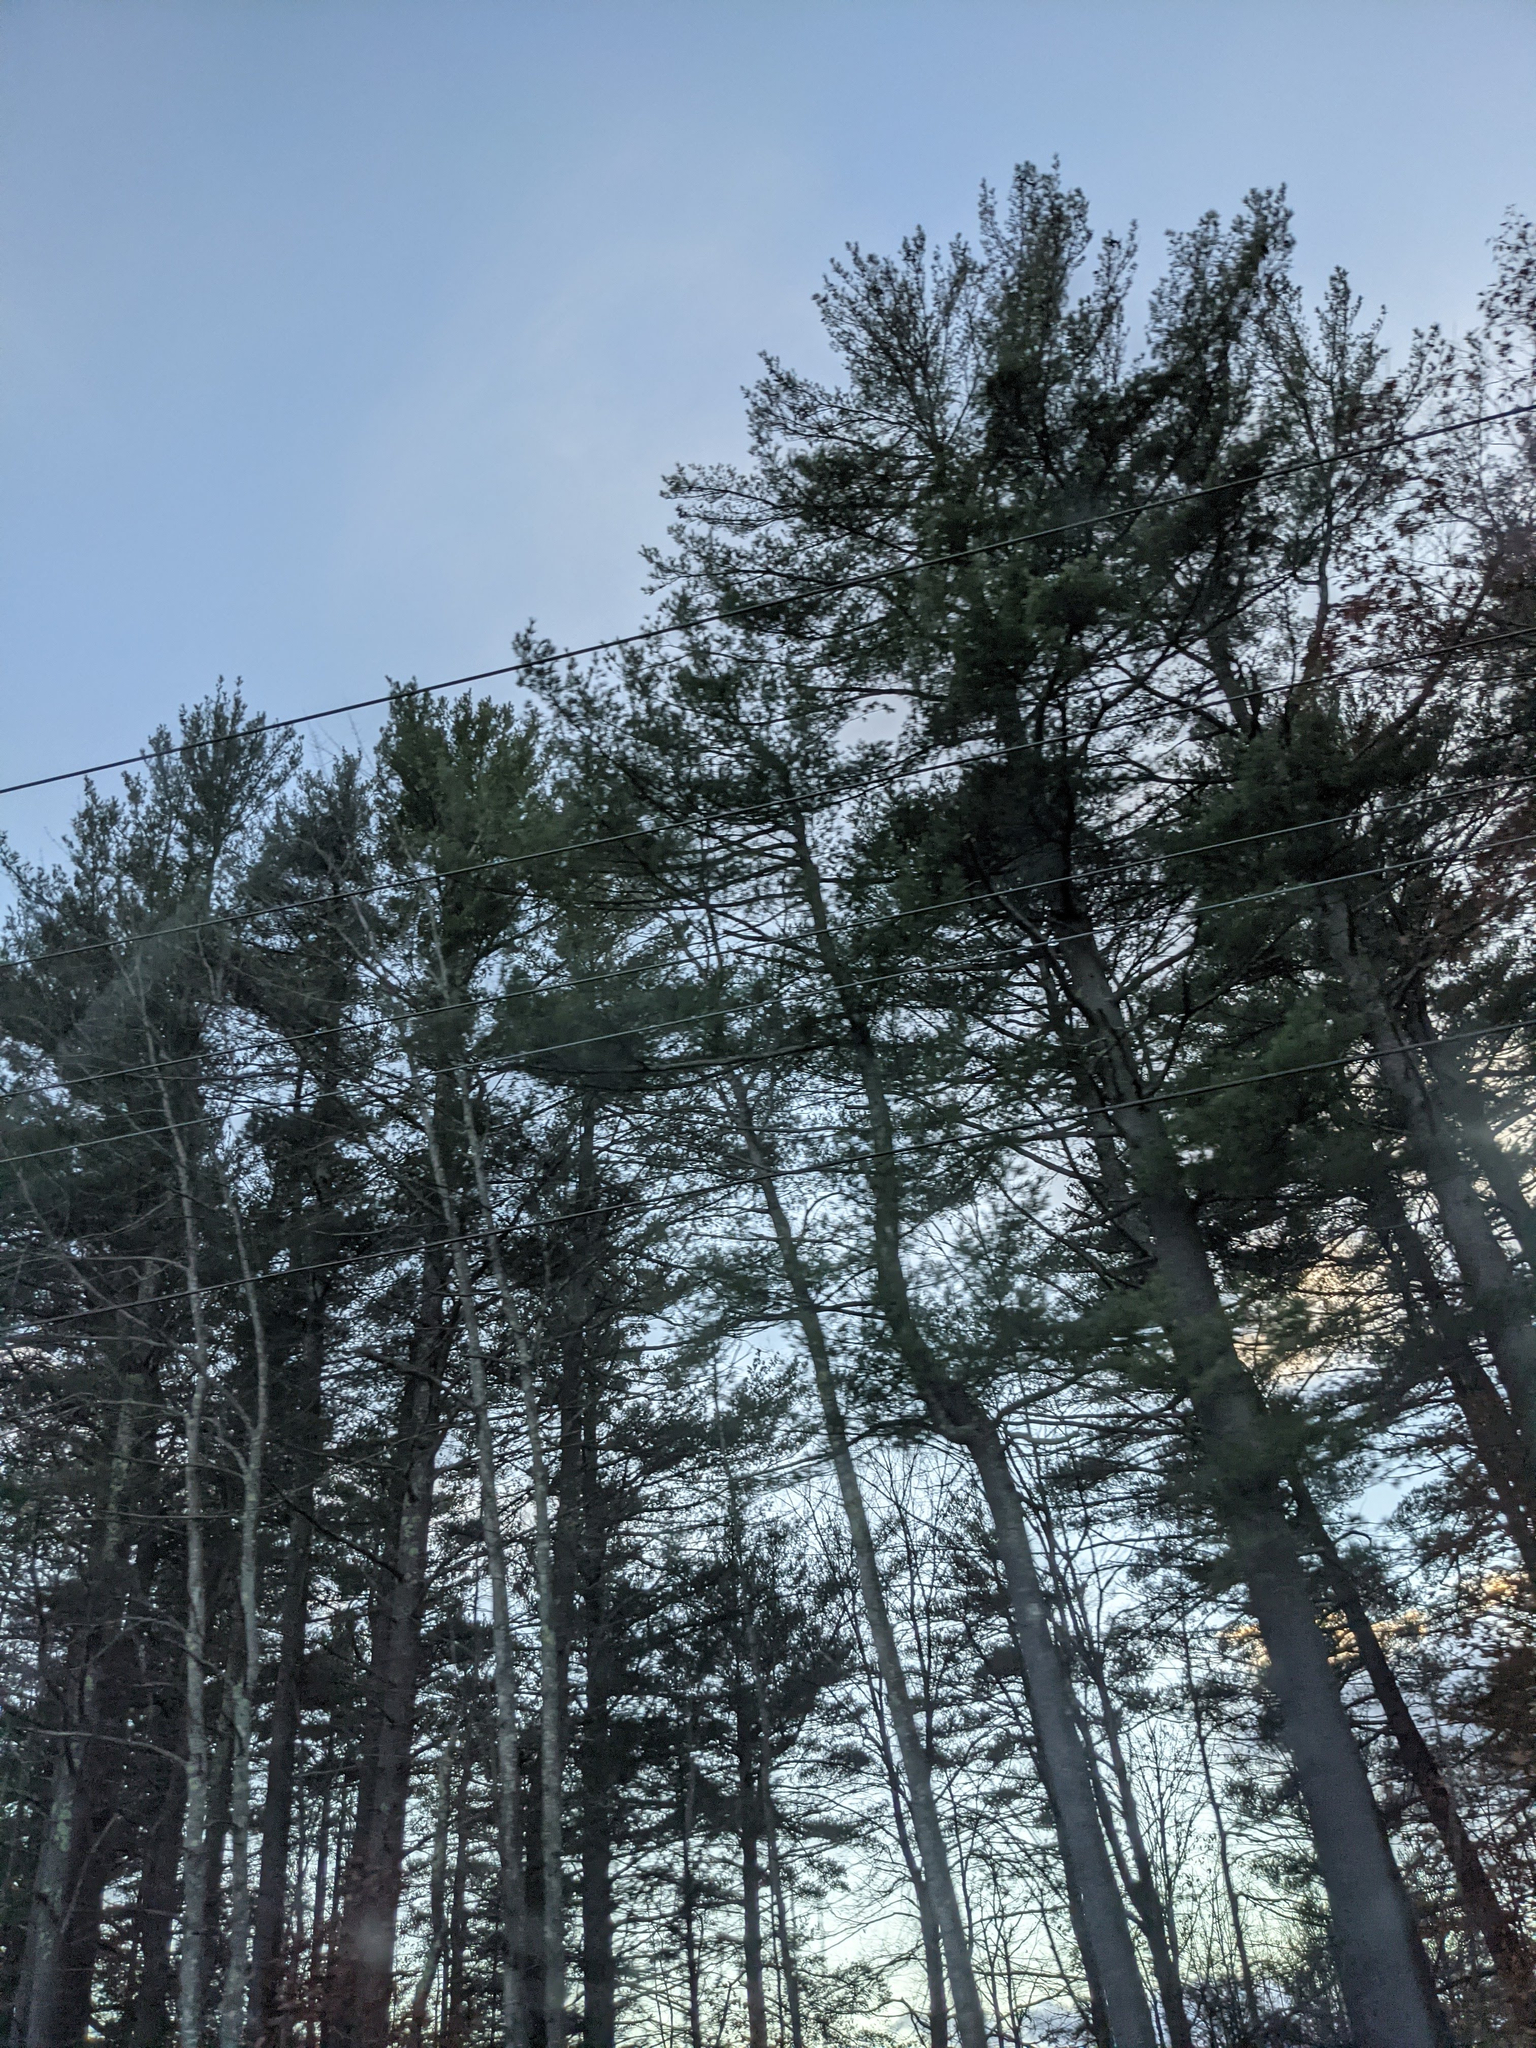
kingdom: Plantae
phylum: Tracheophyta
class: Pinopsida
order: Pinales
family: Pinaceae
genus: Pinus
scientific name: Pinus strobus
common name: Weymouth pine
